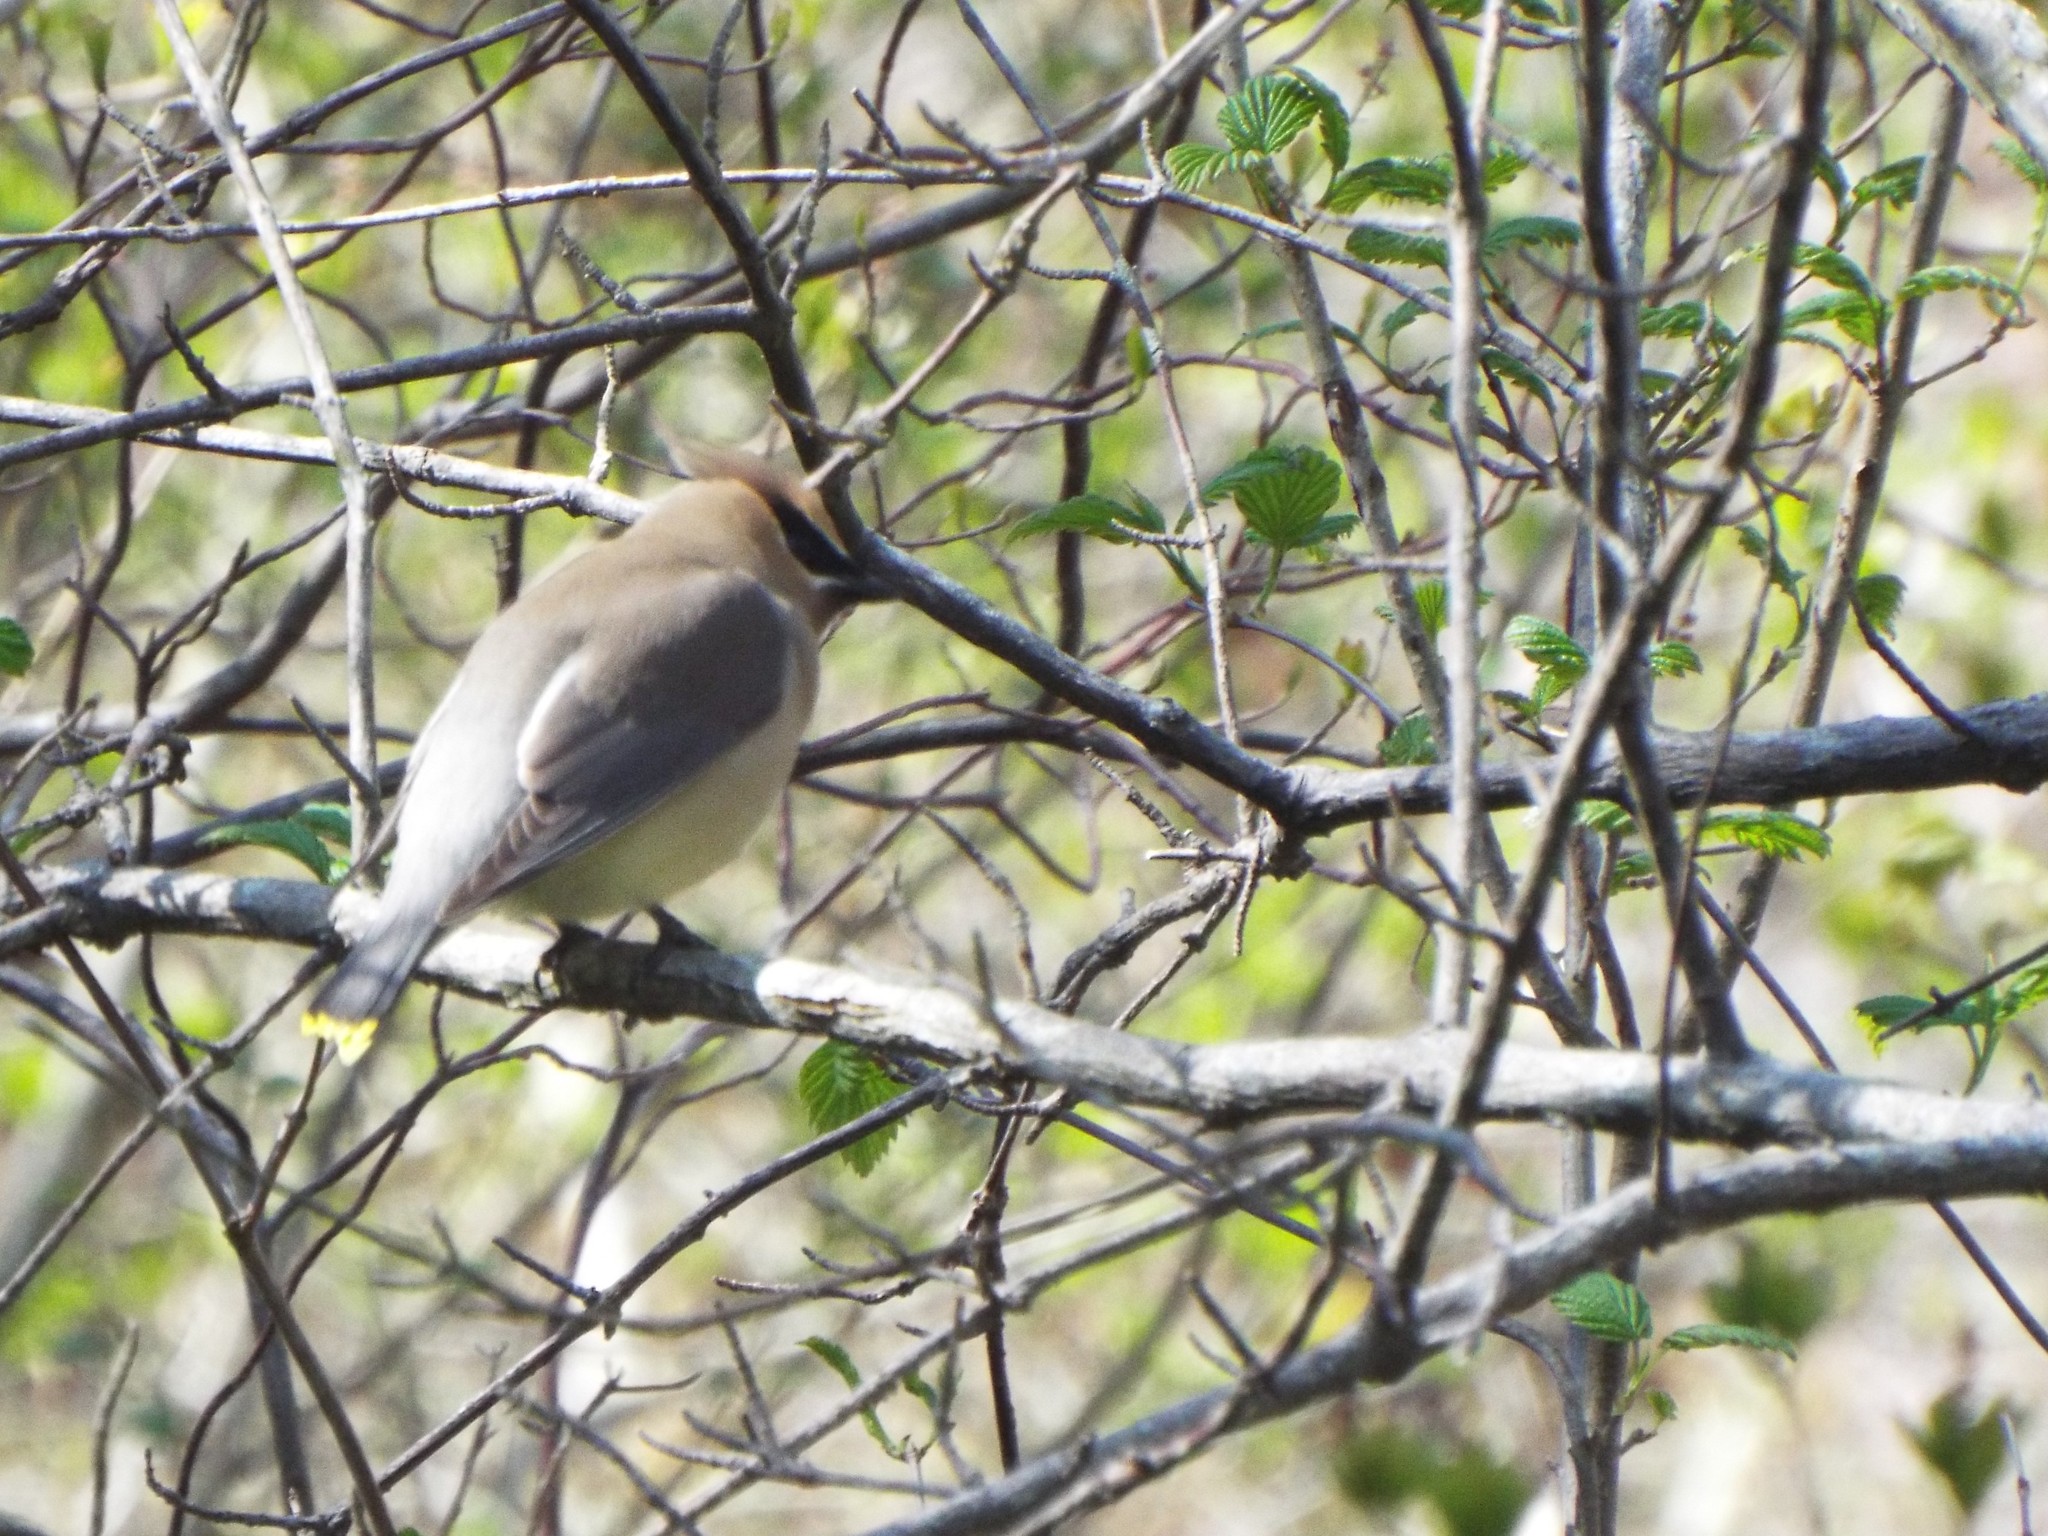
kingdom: Animalia
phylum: Chordata
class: Aves
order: Passeriformes
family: Bombycillidae
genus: Bombycilla
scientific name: Bombycilla cedrorum
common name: Cedar waxwing
